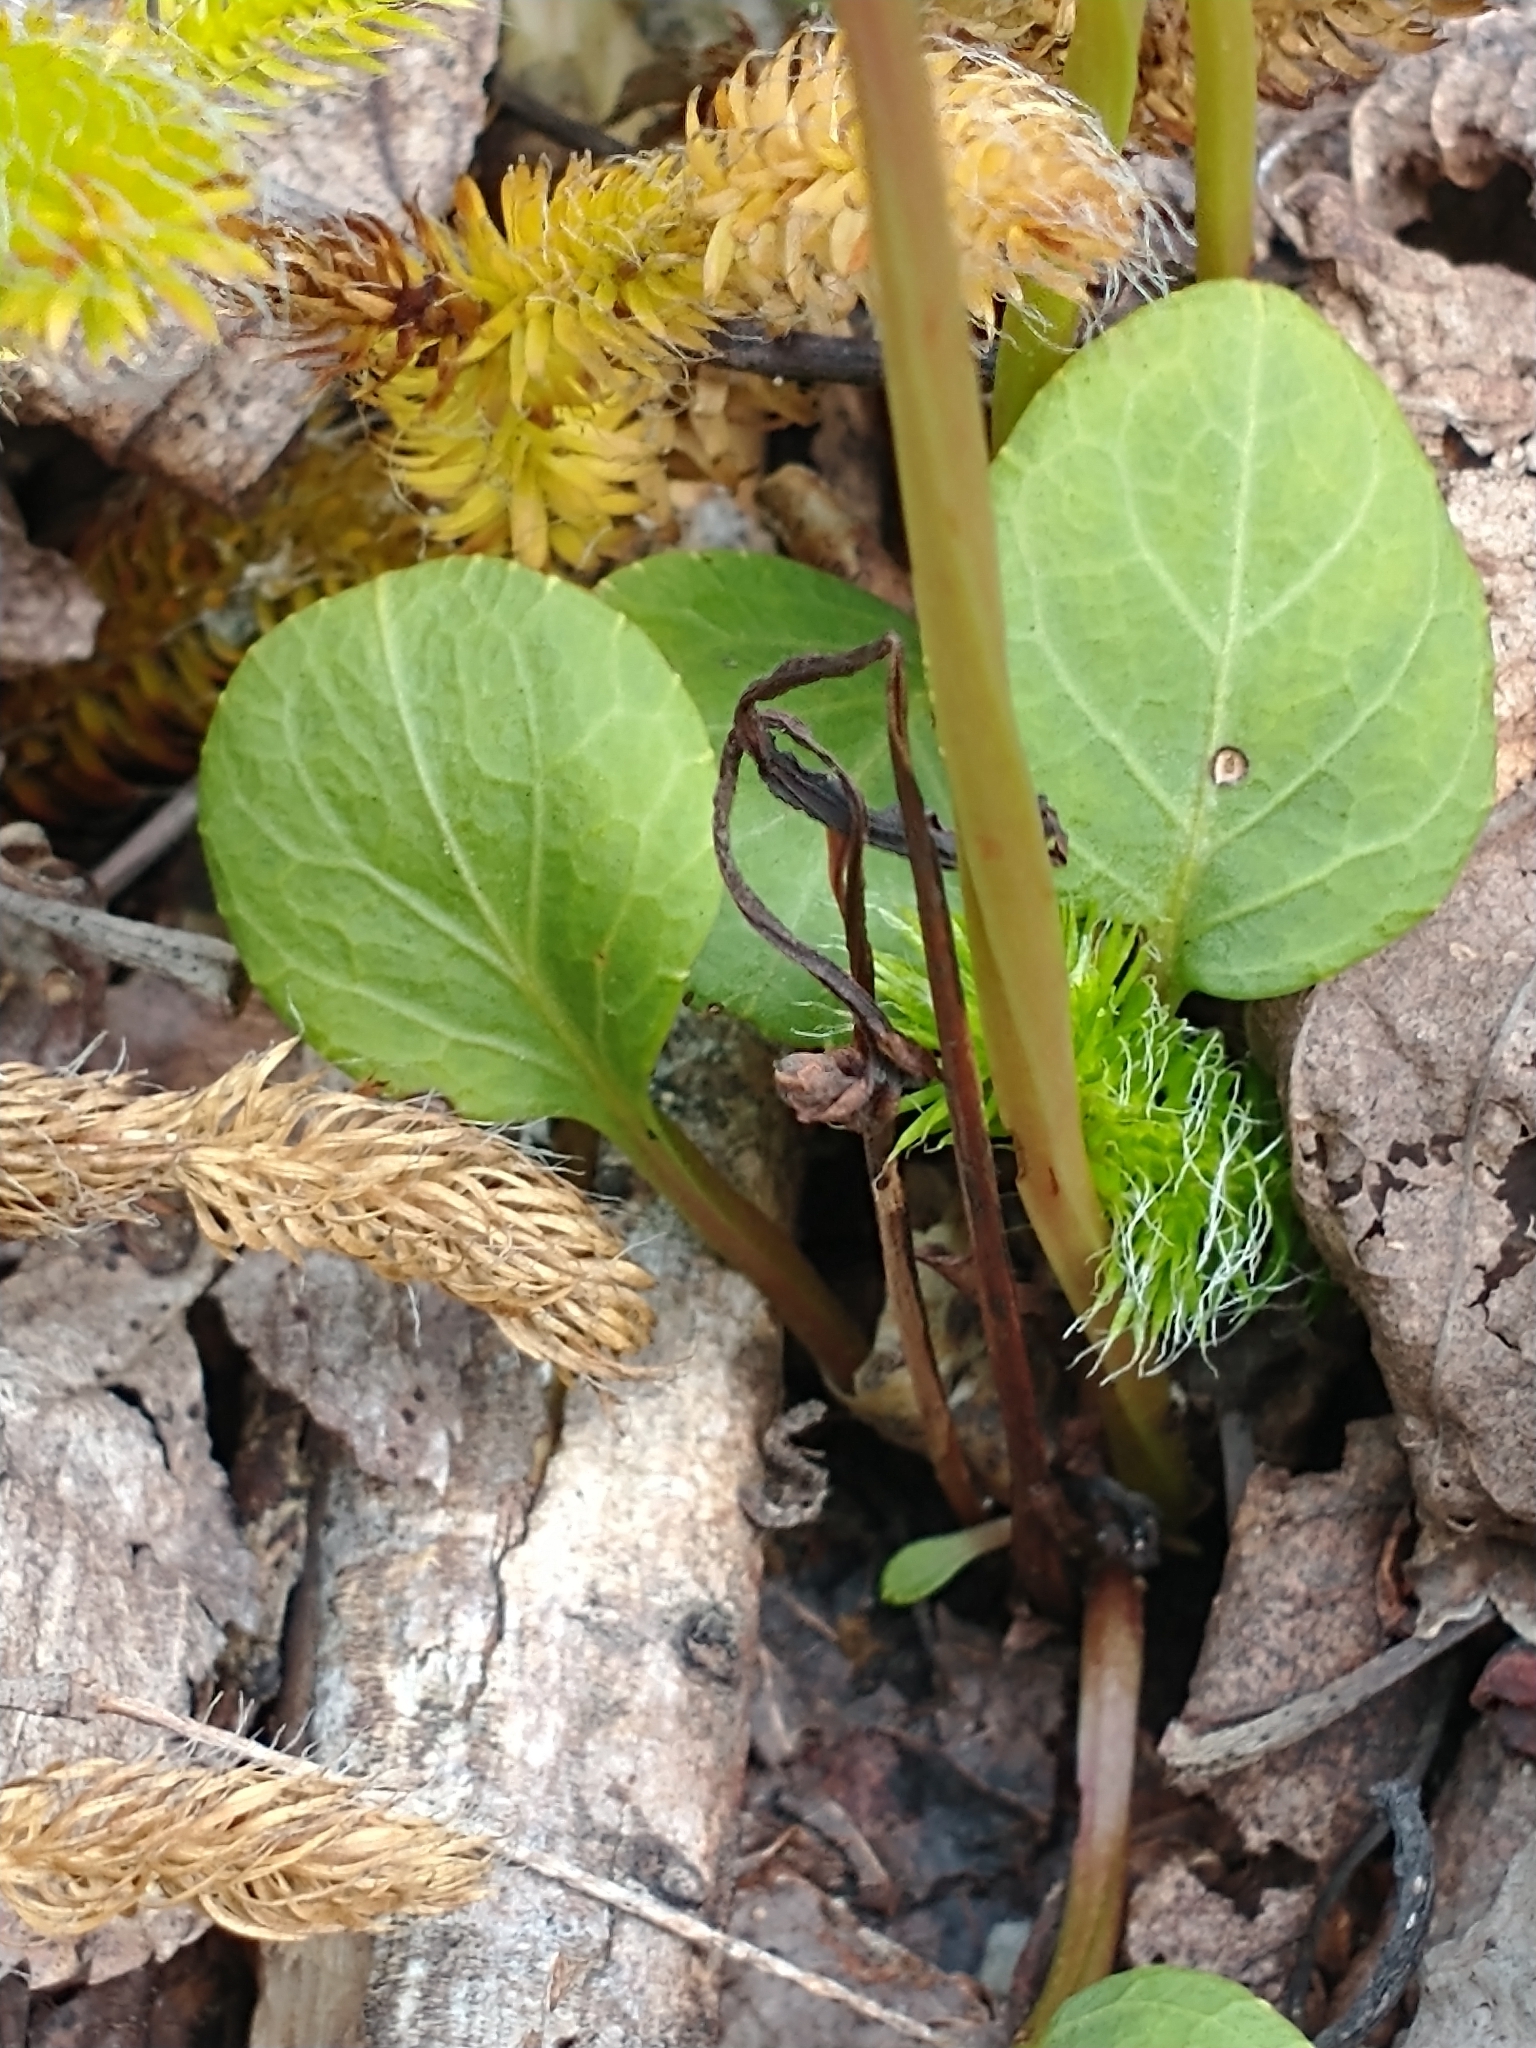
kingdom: Plantae
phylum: Tracheophyta
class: Magnoliopsida
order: Ericales
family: Ericaceae
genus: Pyrola
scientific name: Pyrola chlorantha
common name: Green wintergreen
